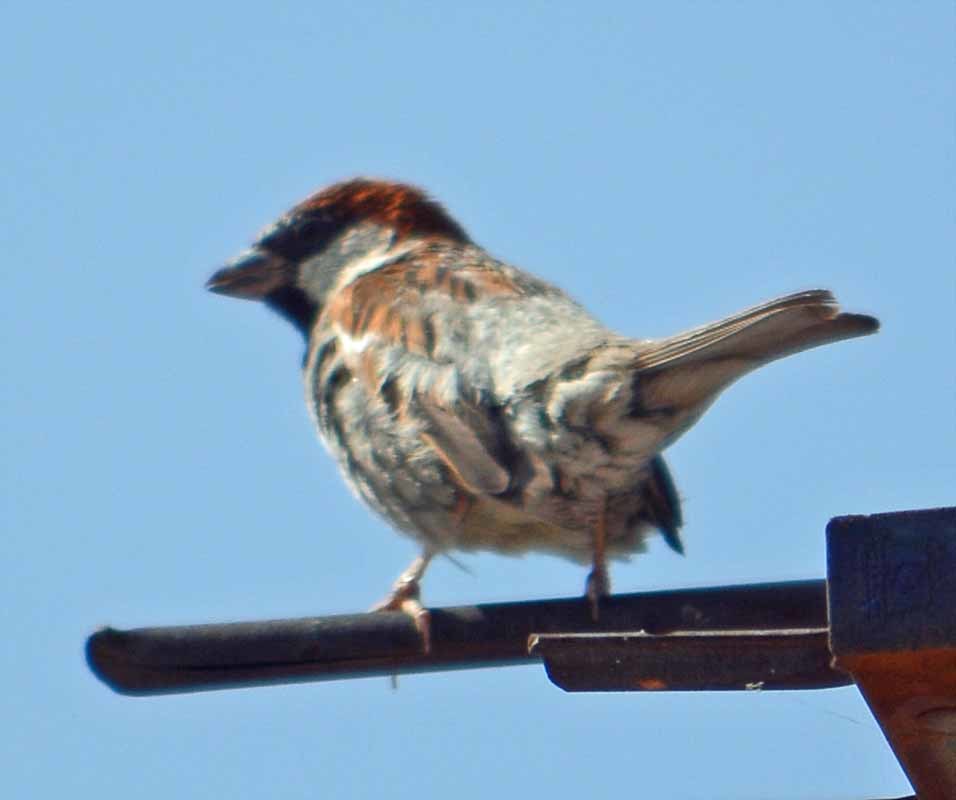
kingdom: Animalia
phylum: Chordata
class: Aves
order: Passeriformes
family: Passeridae
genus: Passer
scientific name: Passer domesticus
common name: House sparrow
